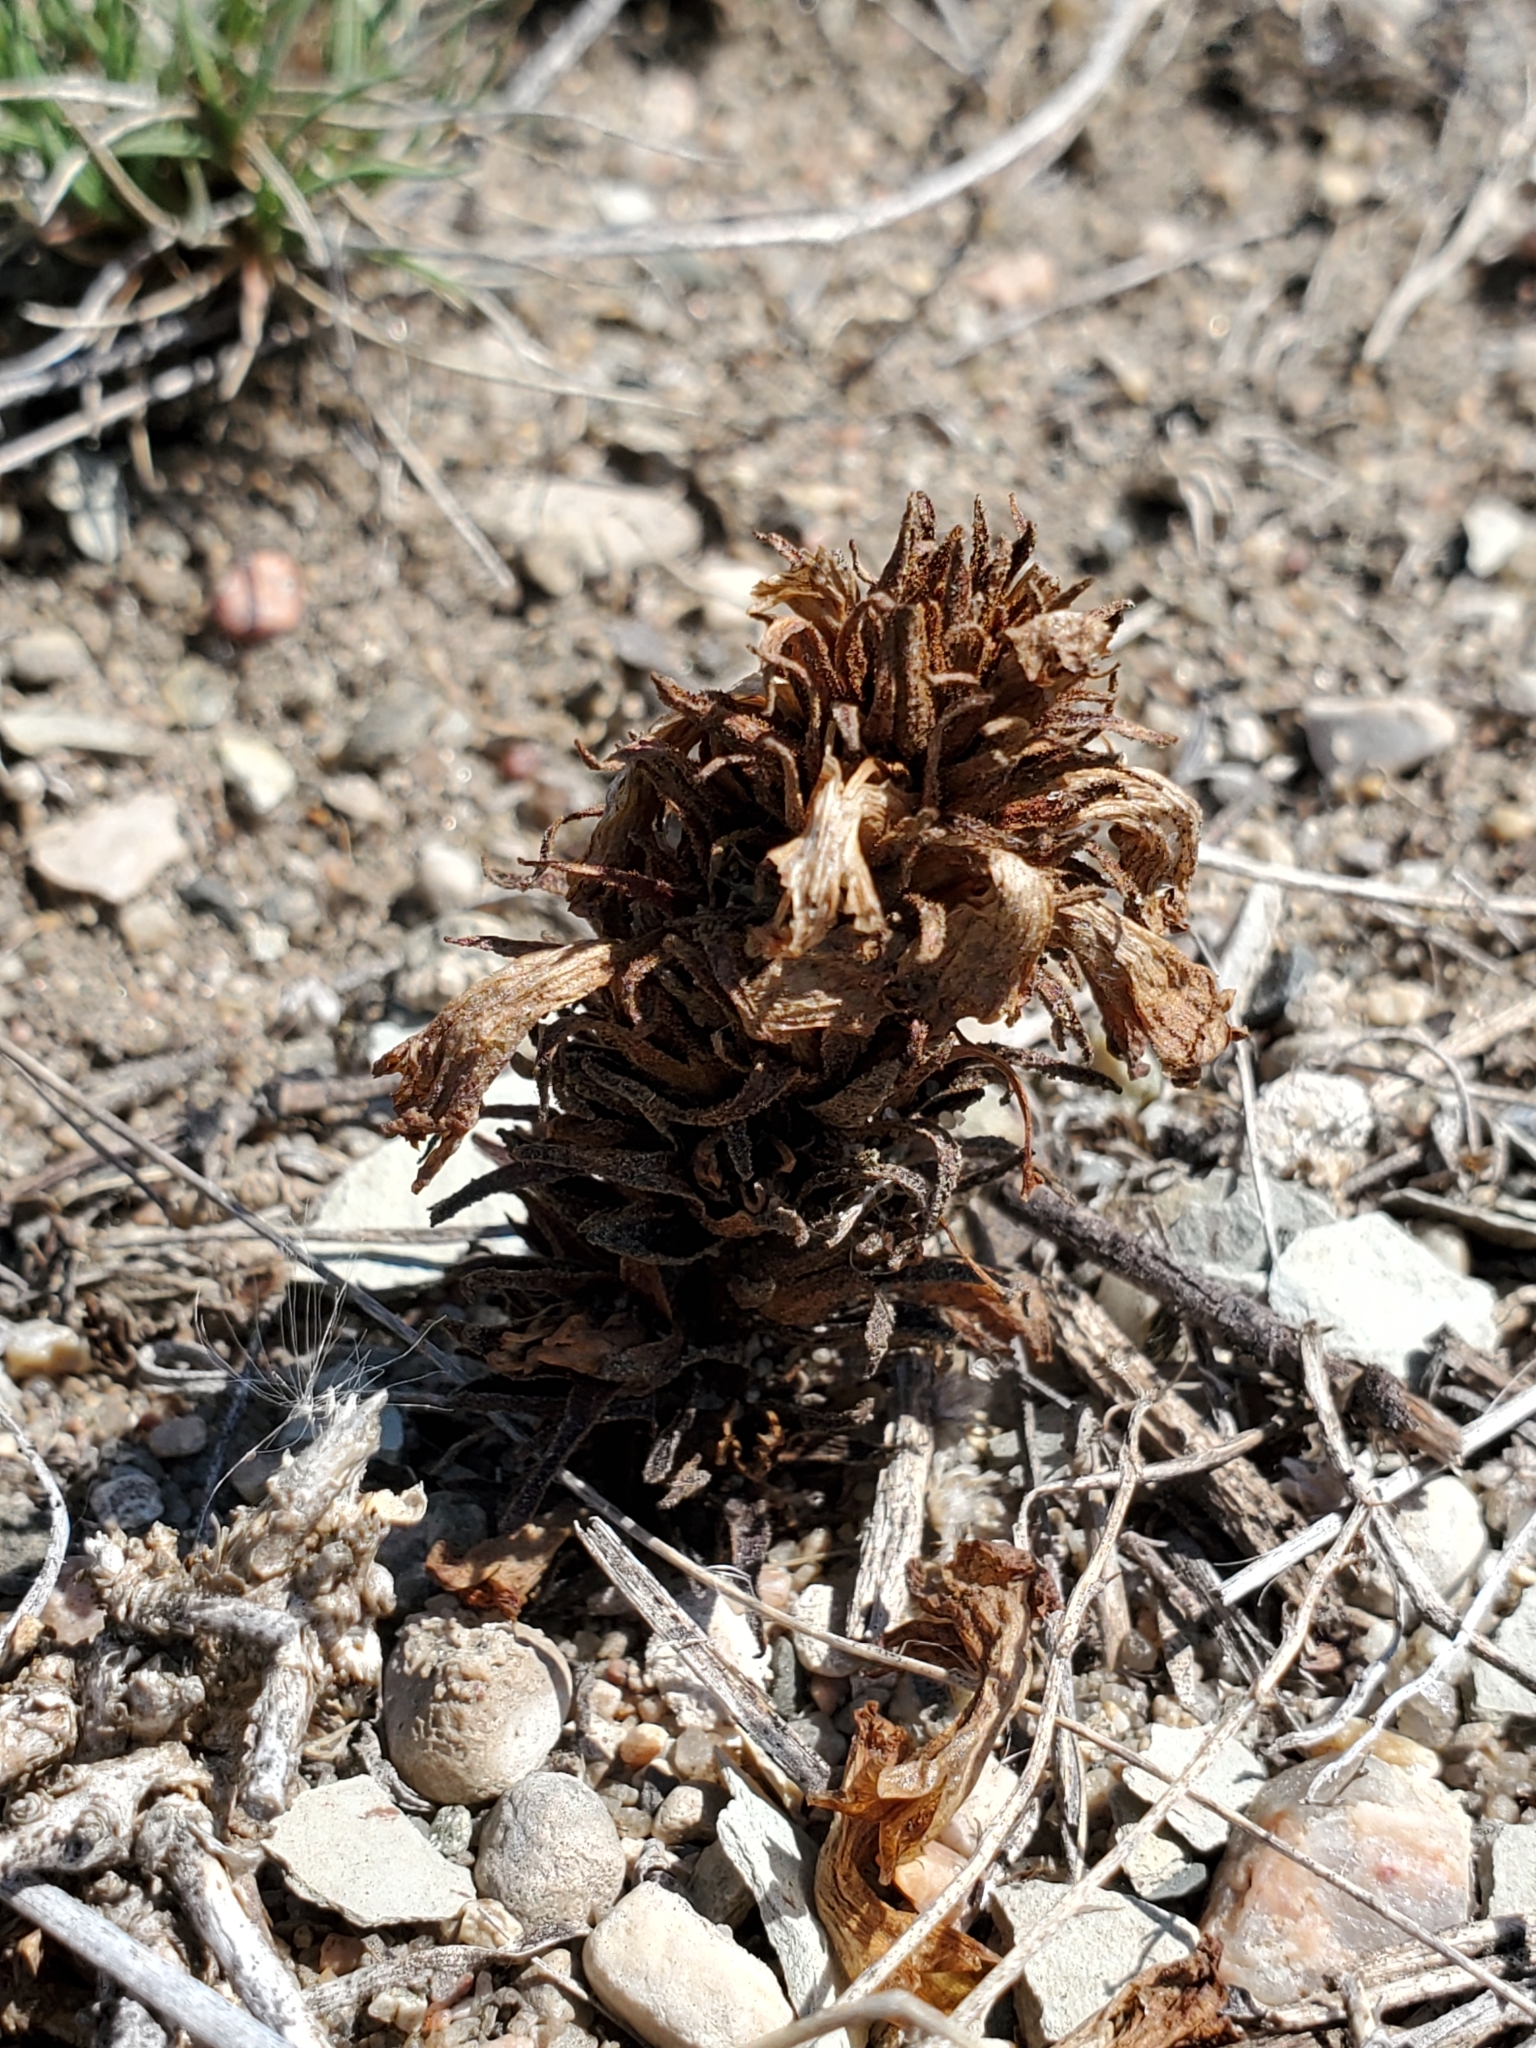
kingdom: Plantae
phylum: Tracheophyta
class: Magnoliopsida
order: Lamiales
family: Orobanchaceae
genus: Aphyllon
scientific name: Aphyllon ludovicianum
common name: Louisiana broomrape
